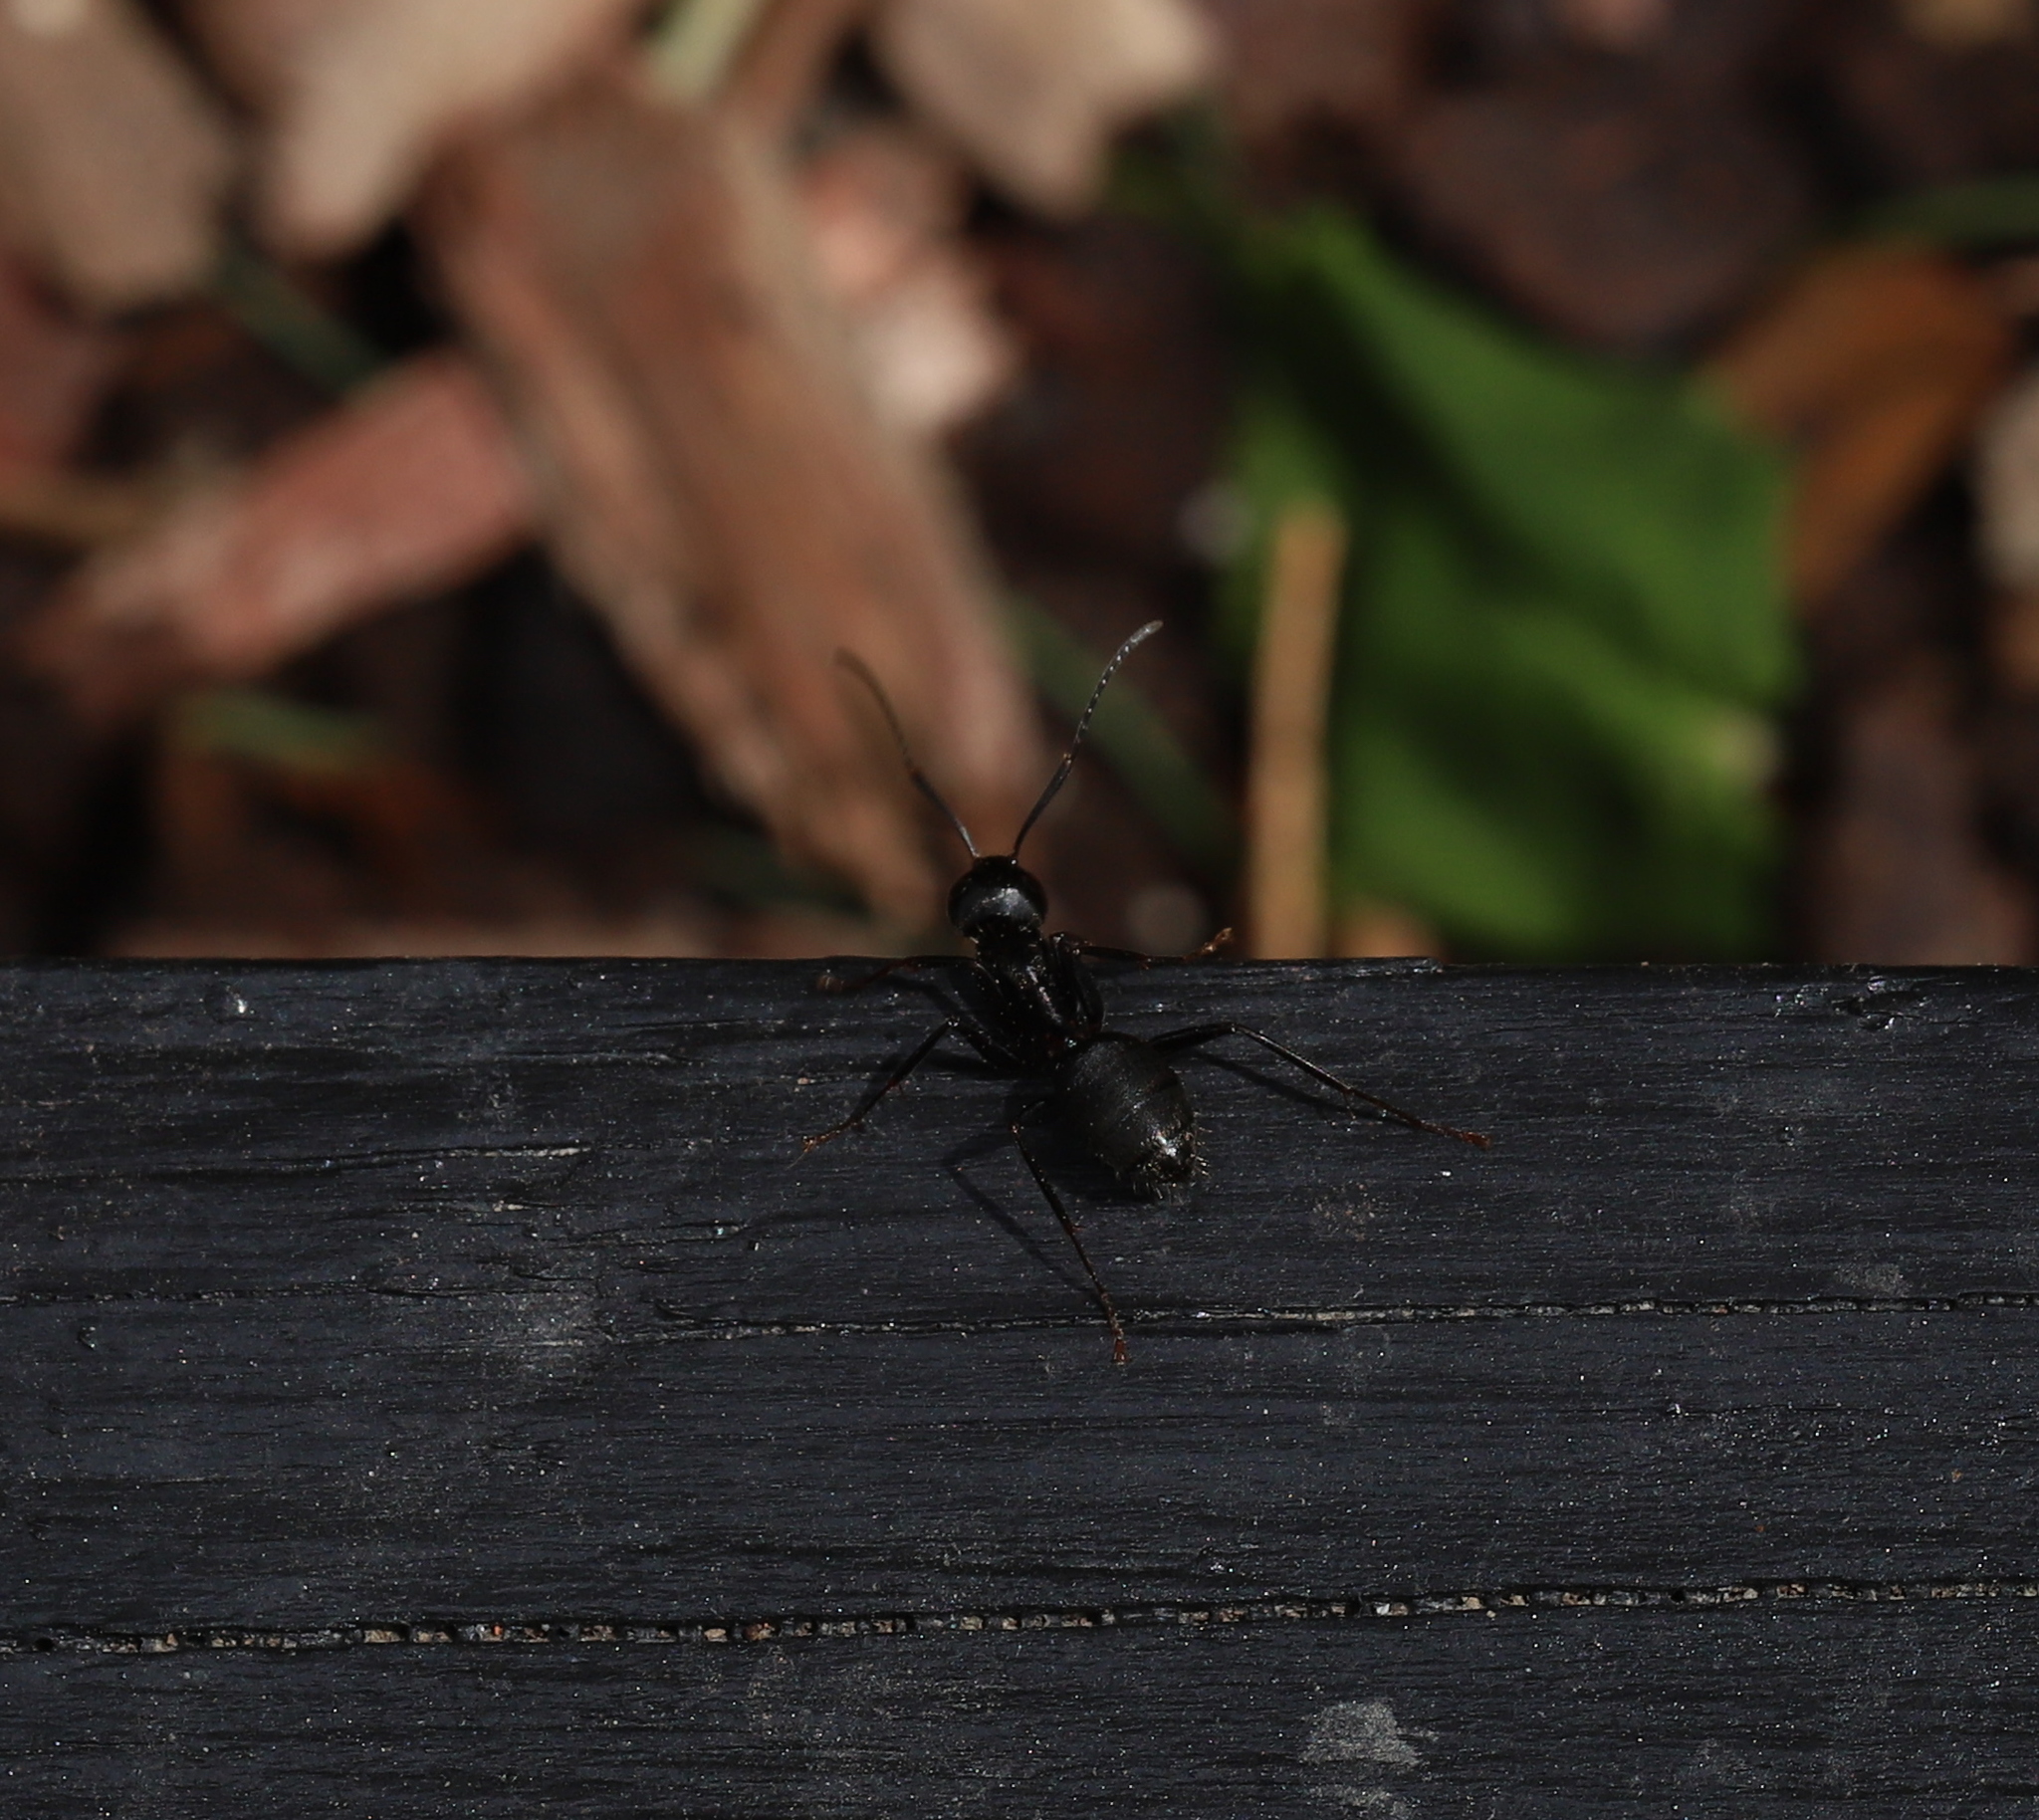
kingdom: Animalia
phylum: Arthropoda
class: Insecta
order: Hymenoptera
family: Formicidae
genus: Camponotus
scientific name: Camponotus pennsylvanicus
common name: Black carpenter ant
